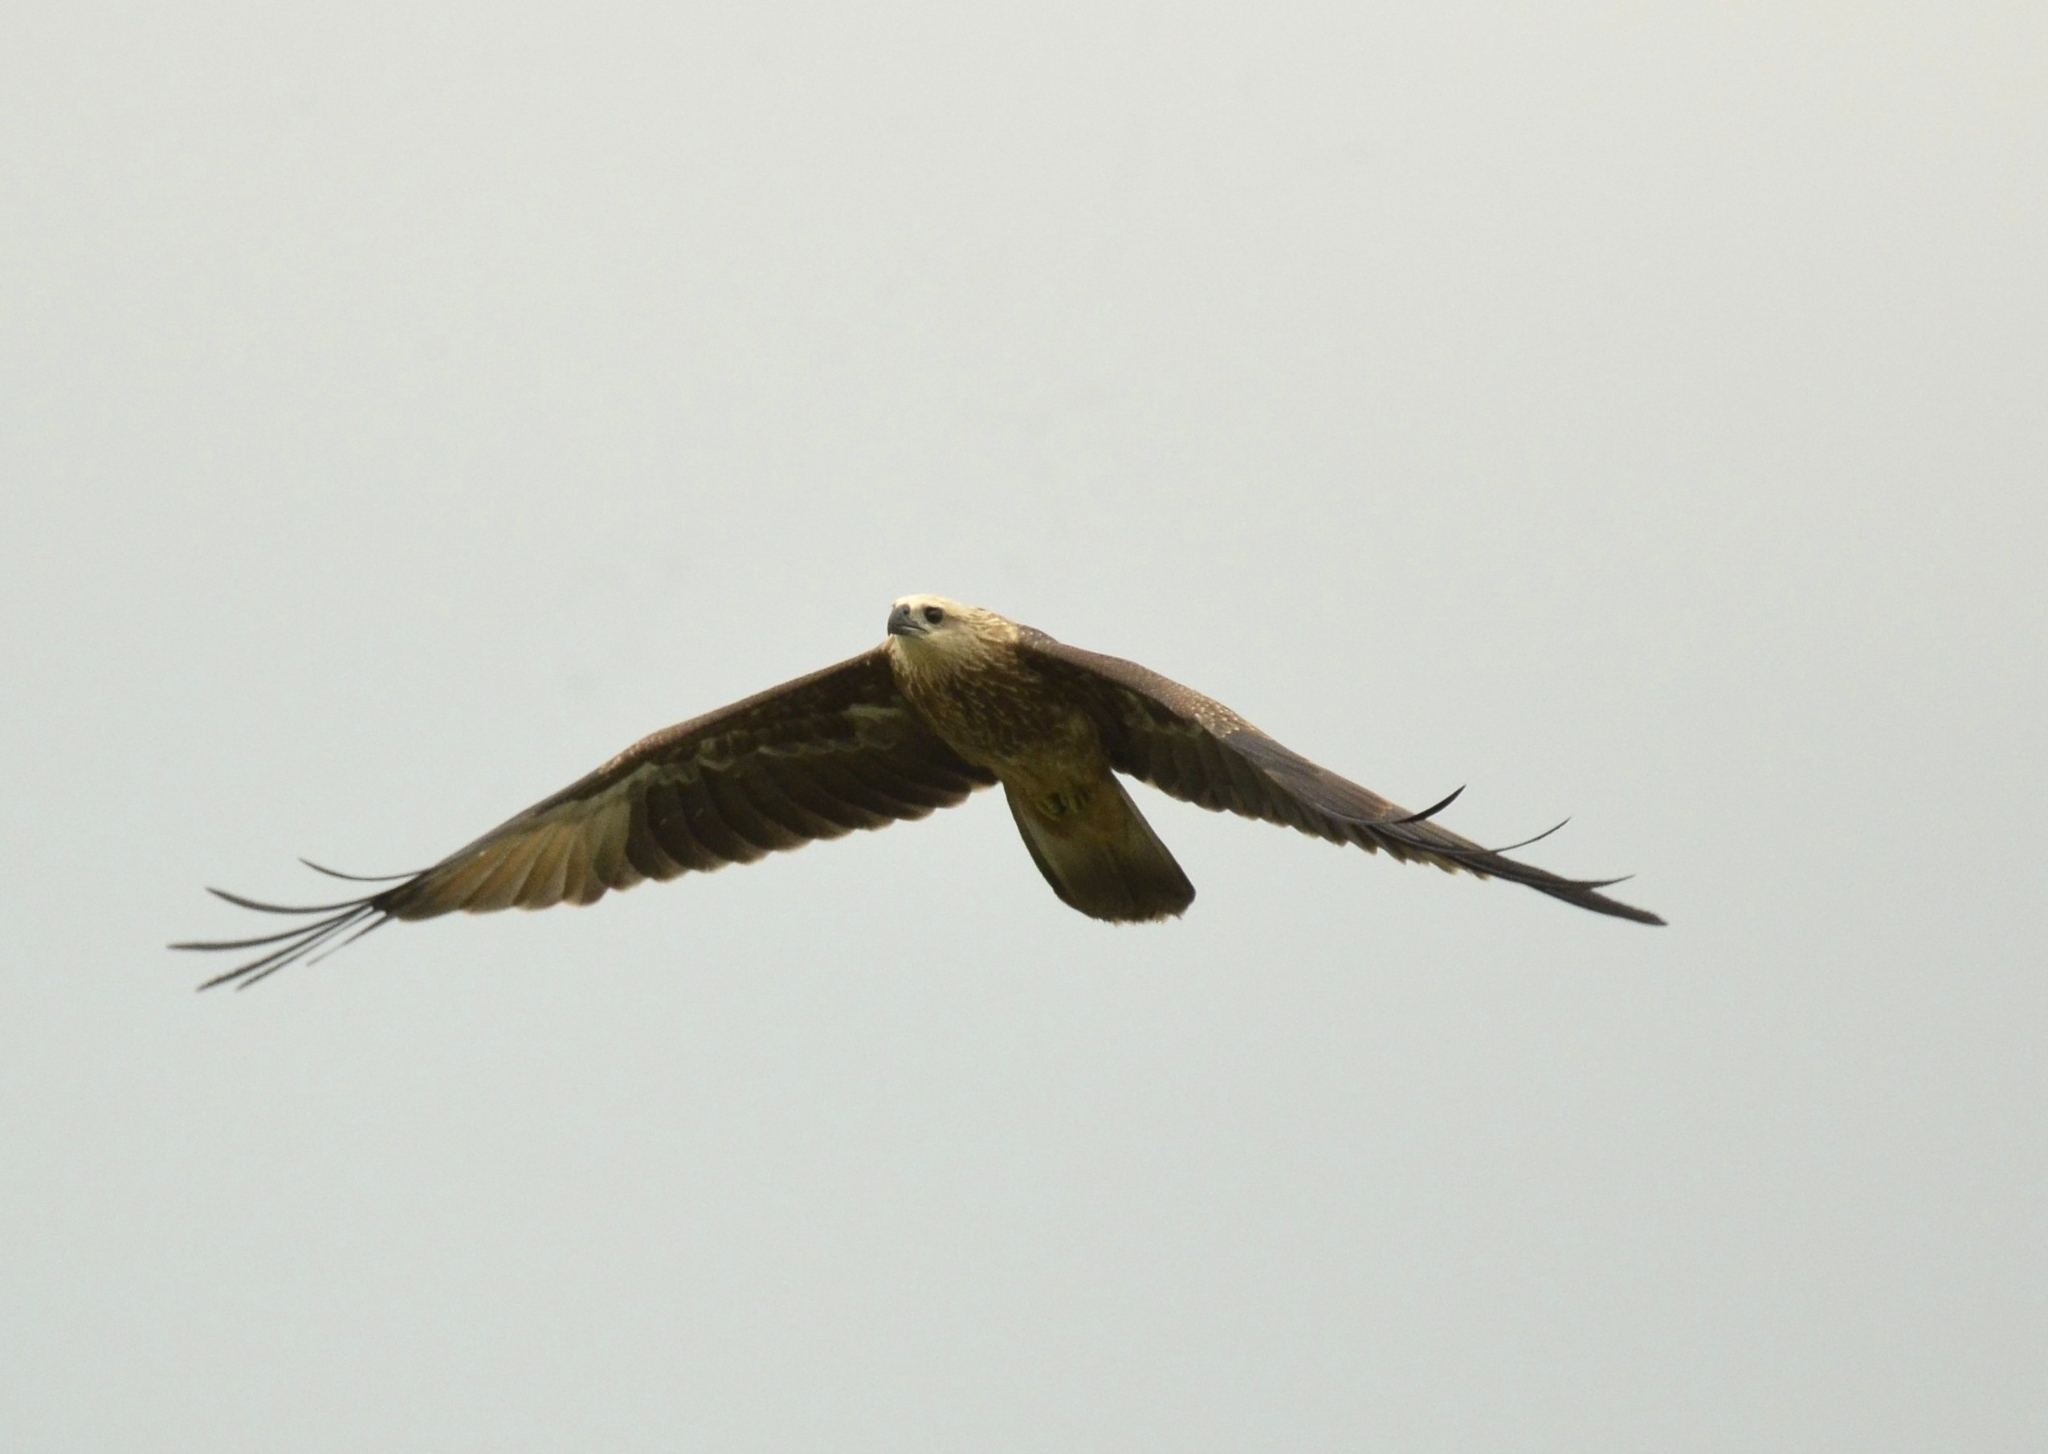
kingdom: Animalia
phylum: Chordata
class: Aves
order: Accipitriformes
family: Accipitridae
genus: Haliastur
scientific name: Haliastur indus
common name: Brahminy kite
